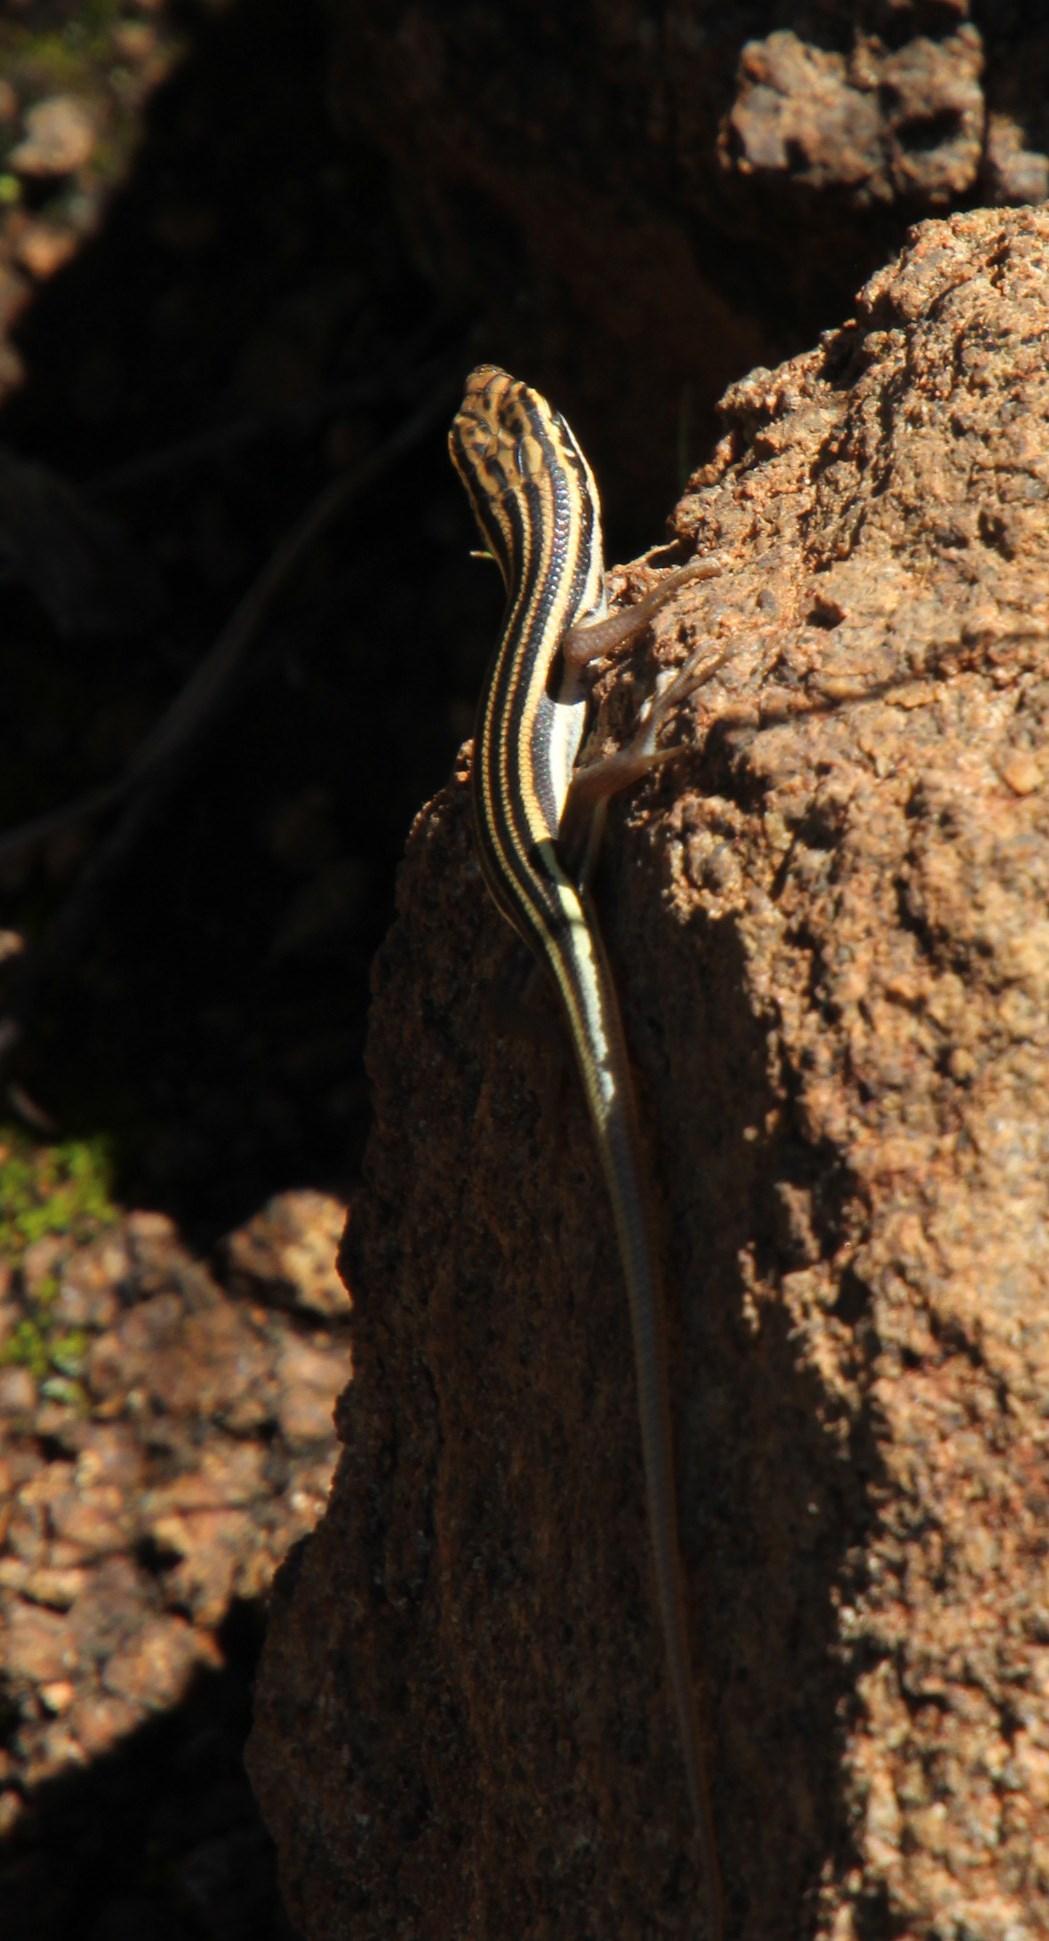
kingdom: Animalia
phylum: Chordata
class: Squamata
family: Scincidae
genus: Trachylepis
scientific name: Trachylepis sulcata
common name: Western rock skink
